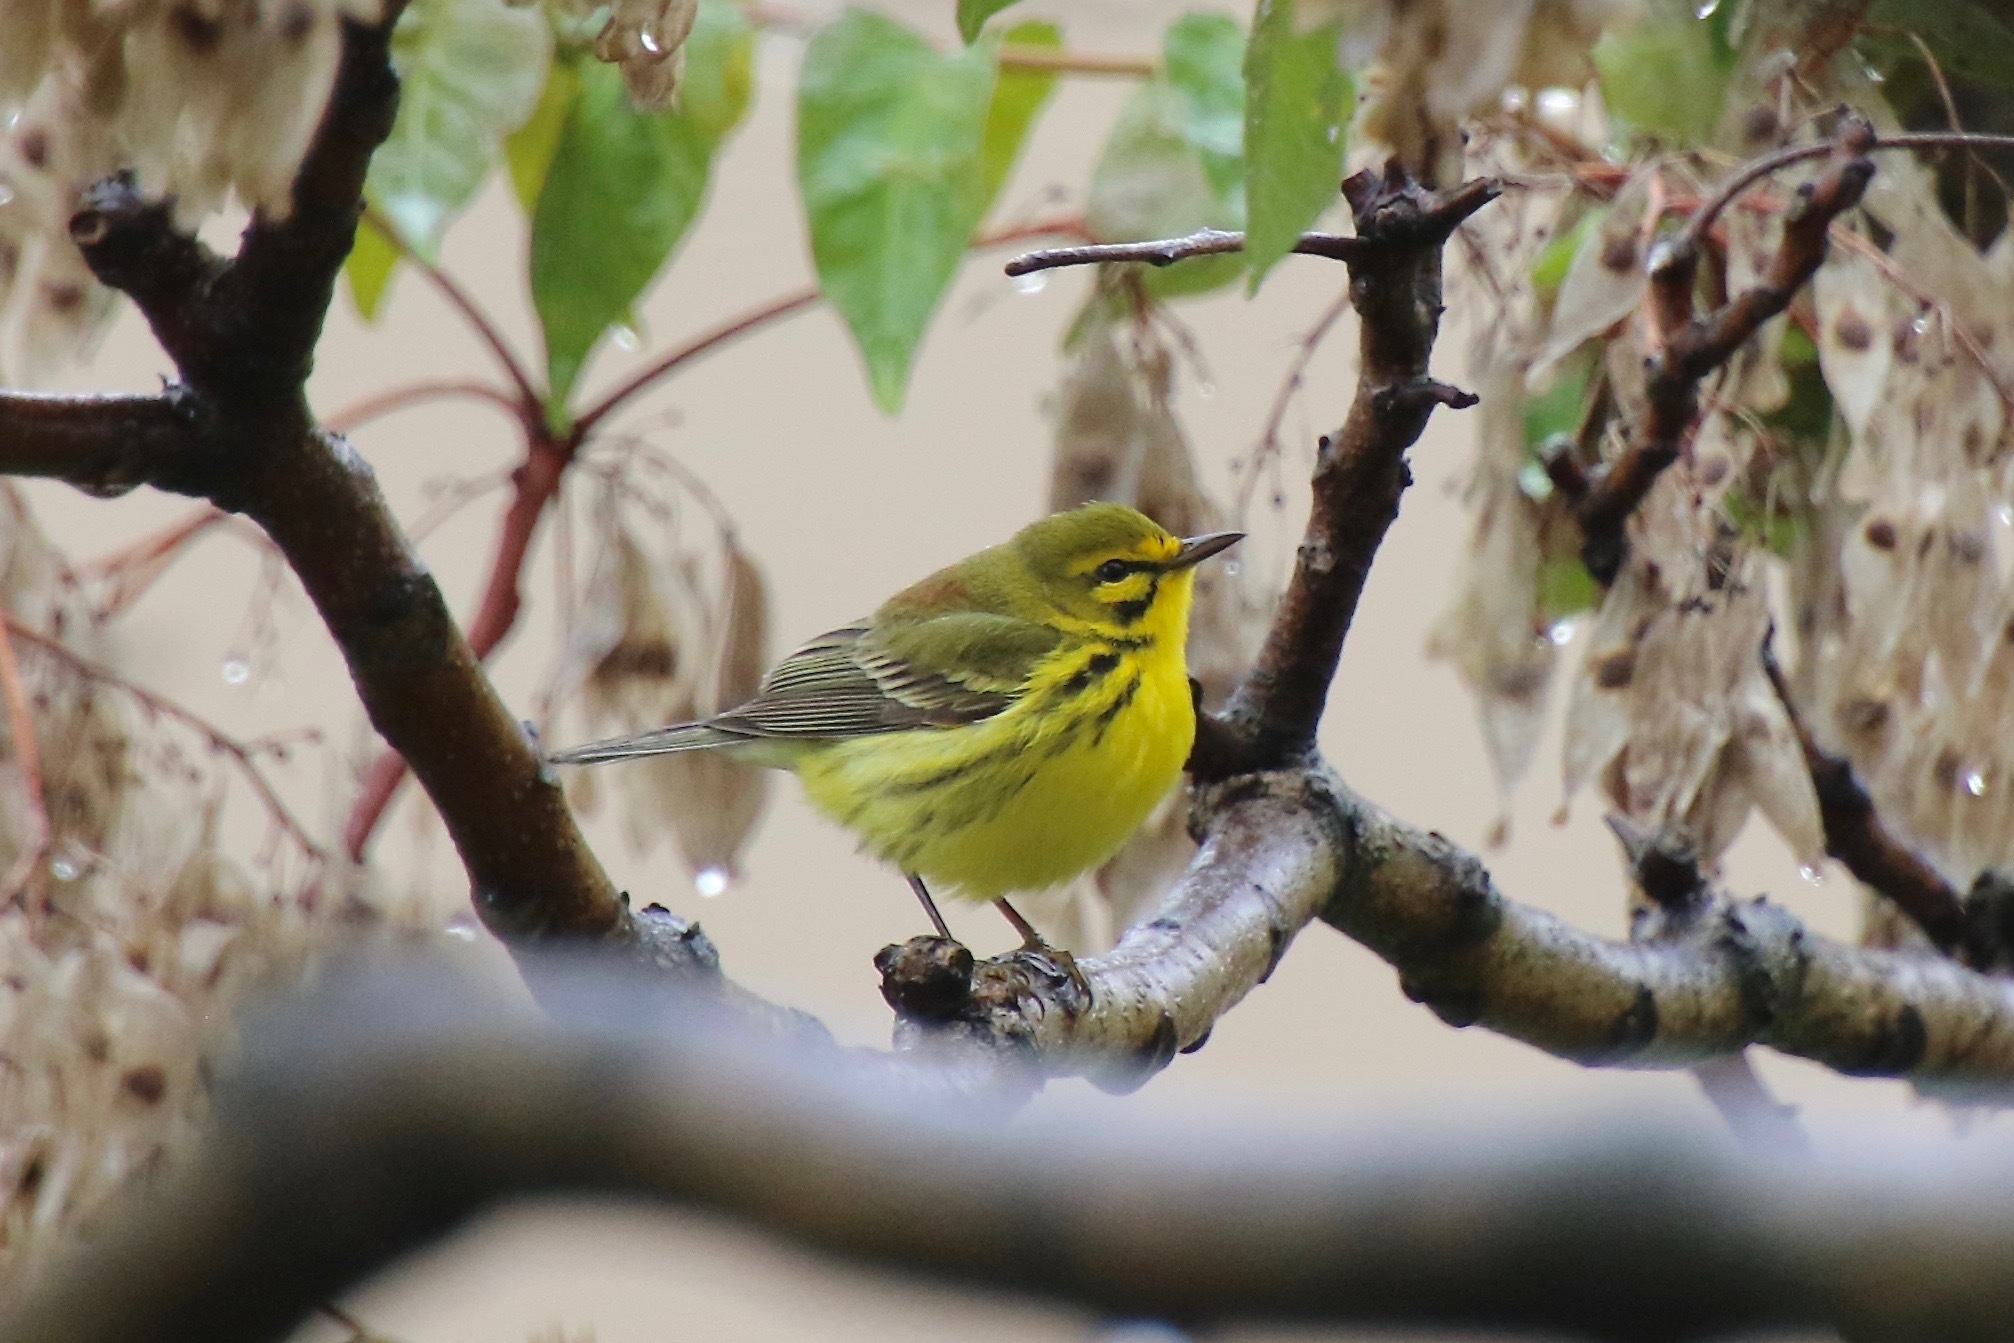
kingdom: Animalia
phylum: Chordata
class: Aves
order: Passeriformes
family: Parulidae
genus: Setophaga
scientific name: Setophaga discolor
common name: Prairie warbler
